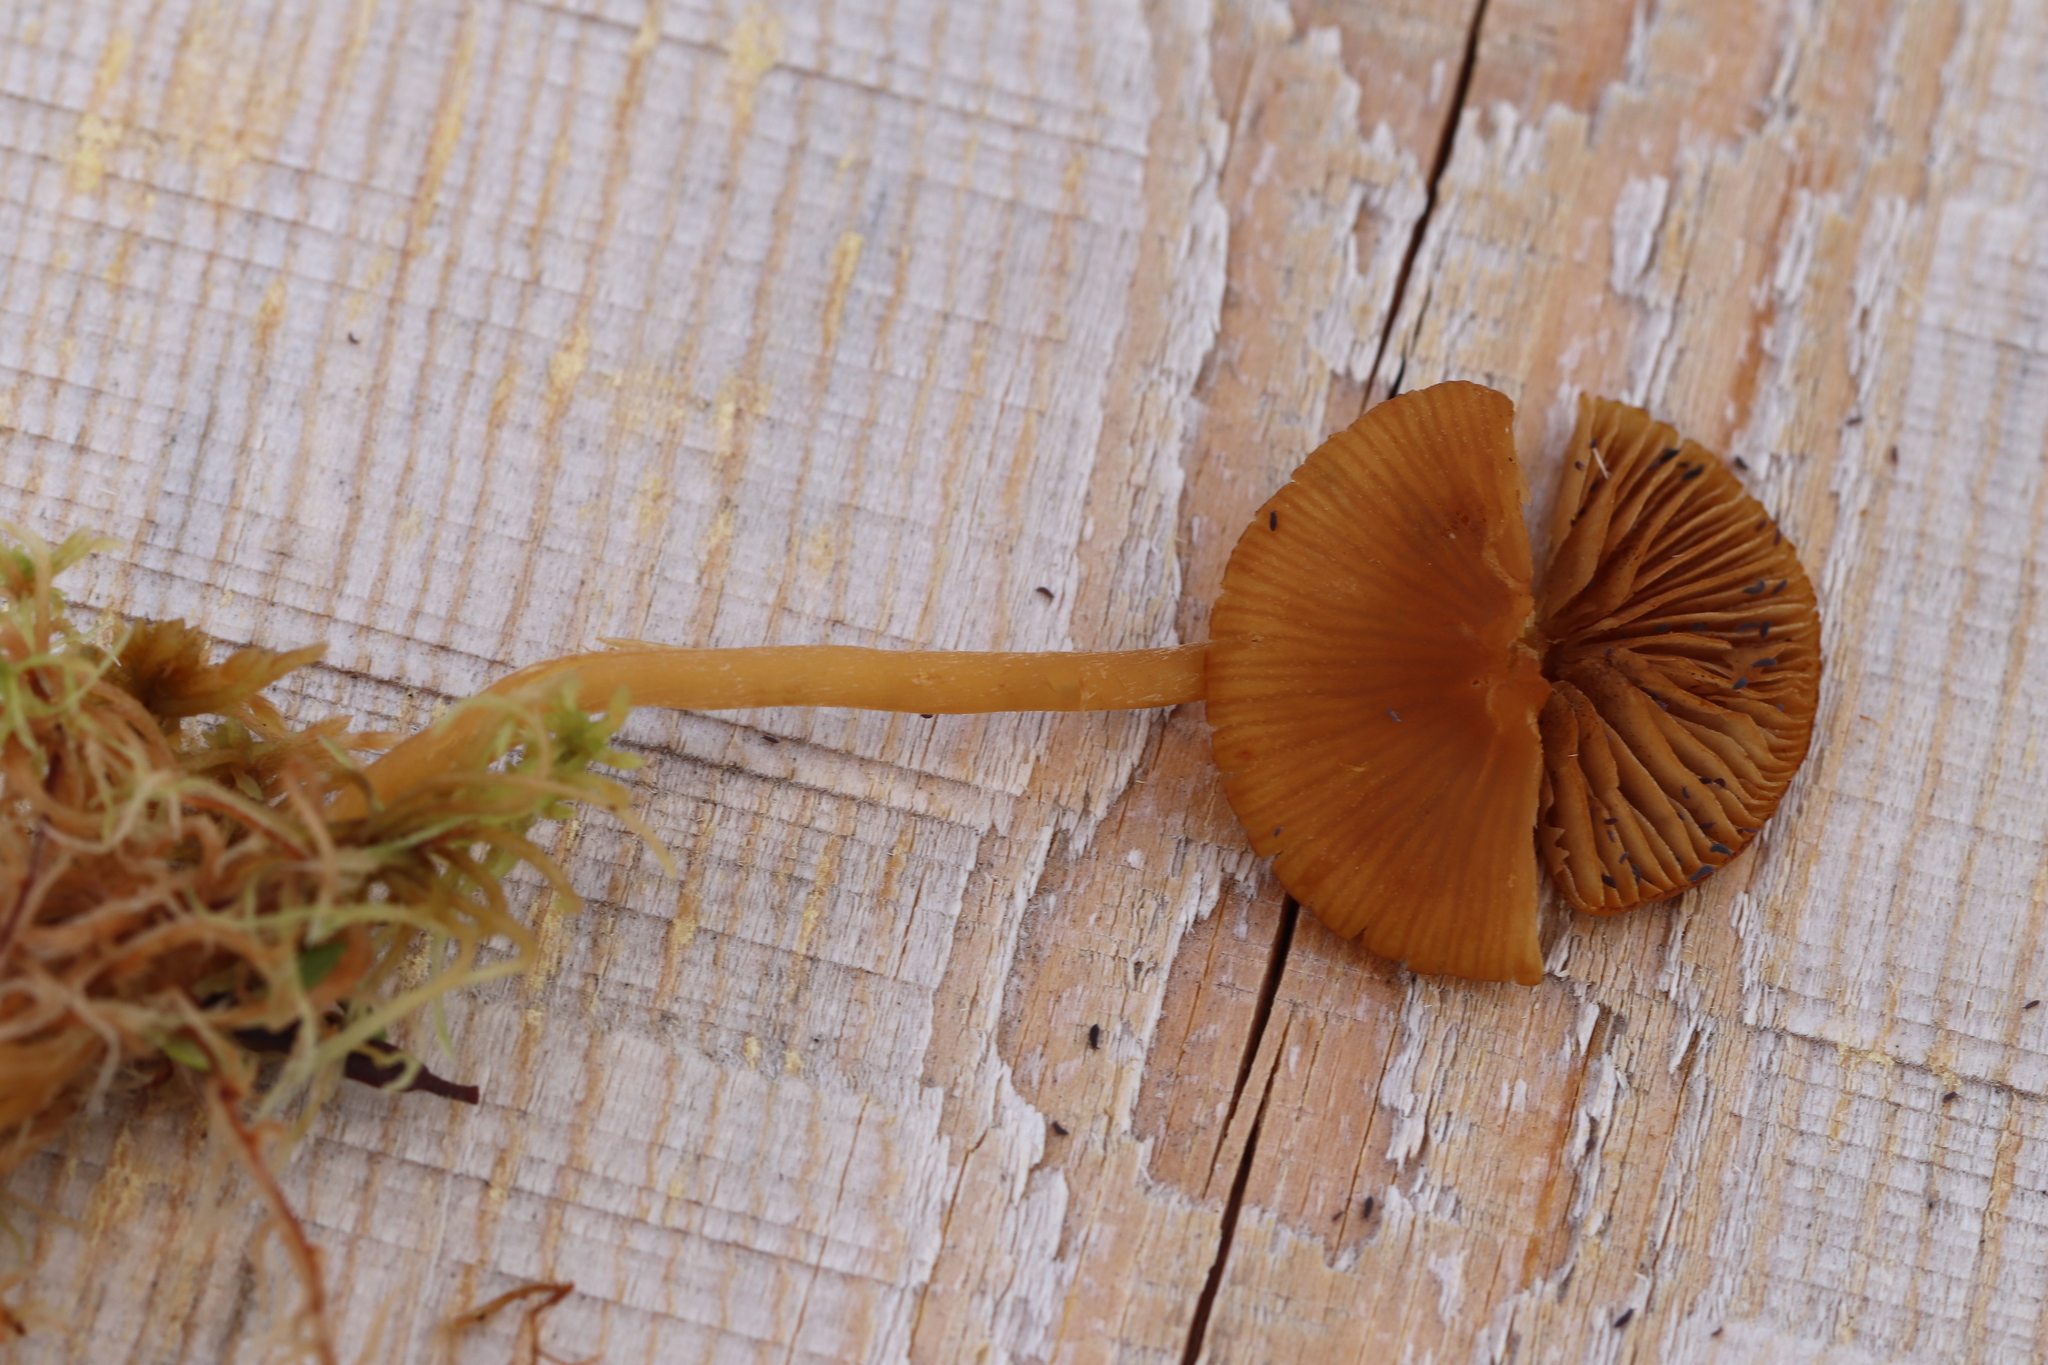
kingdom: Fungi
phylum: Basidiomycota
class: Agaricomycetes
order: Agaricales
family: Hymenogastraceae
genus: Galerina
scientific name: Galerina tibiicystis
